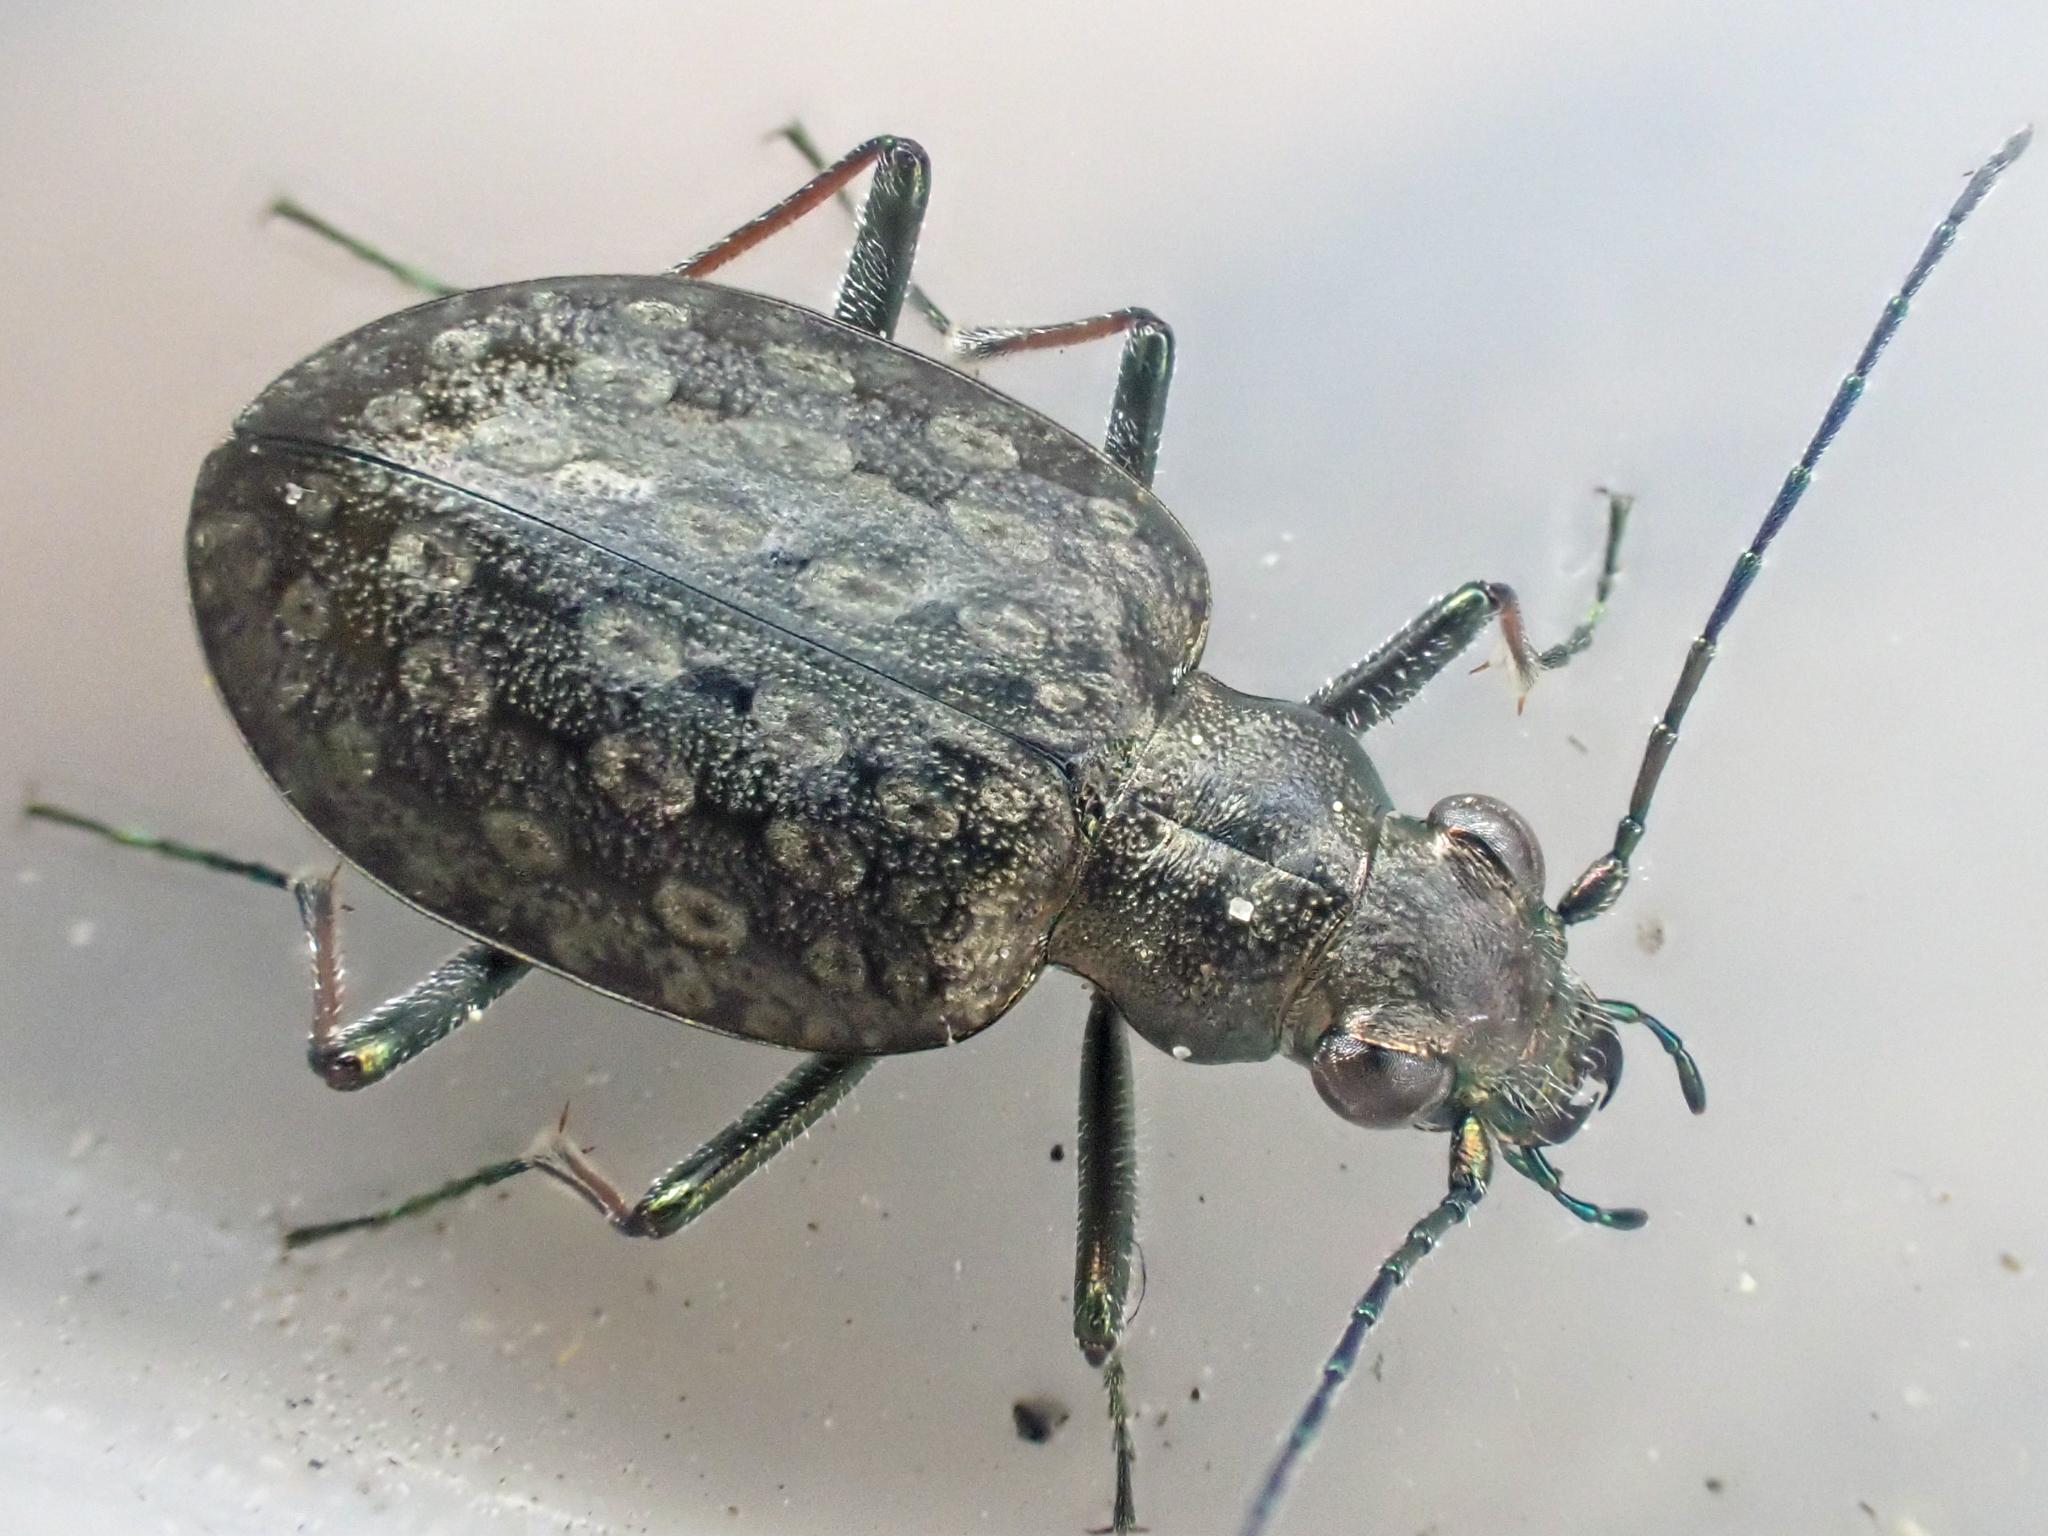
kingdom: Animalia
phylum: Arthropoda
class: Insecta
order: Coleoptera
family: Carabidae
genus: Opisthius
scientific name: Opisthius richardsoni
